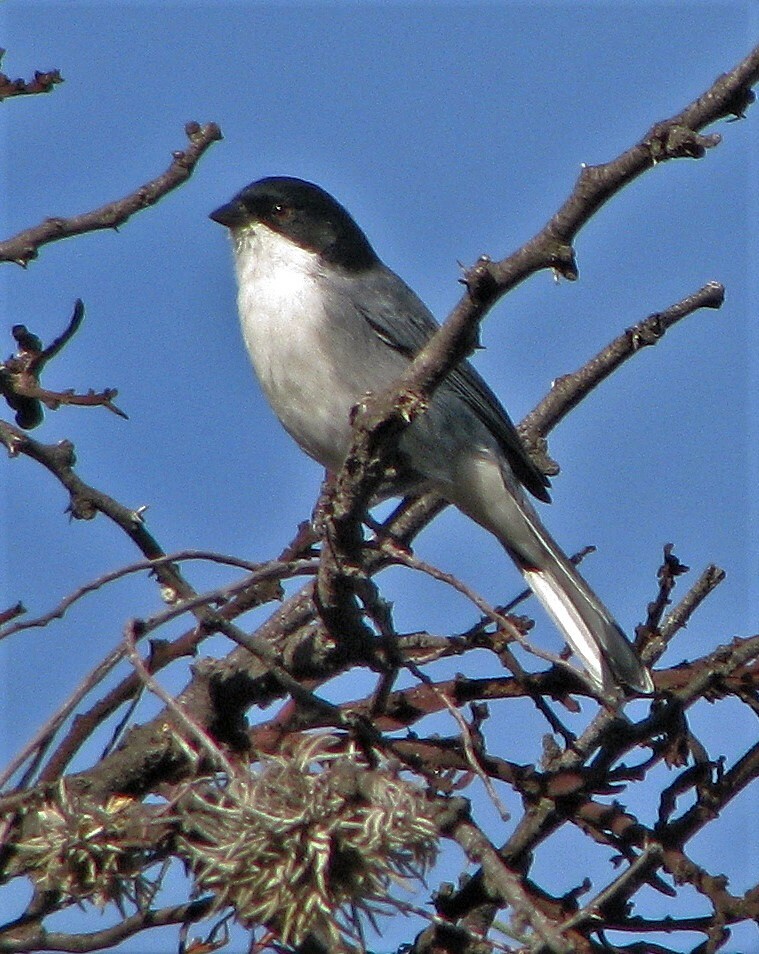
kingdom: Animalia
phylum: Chordata
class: Aves
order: Passeriformes
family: Thraupidae
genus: Microspingus
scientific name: Microspingus melanoleucus
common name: Black-capped warbling-finch
